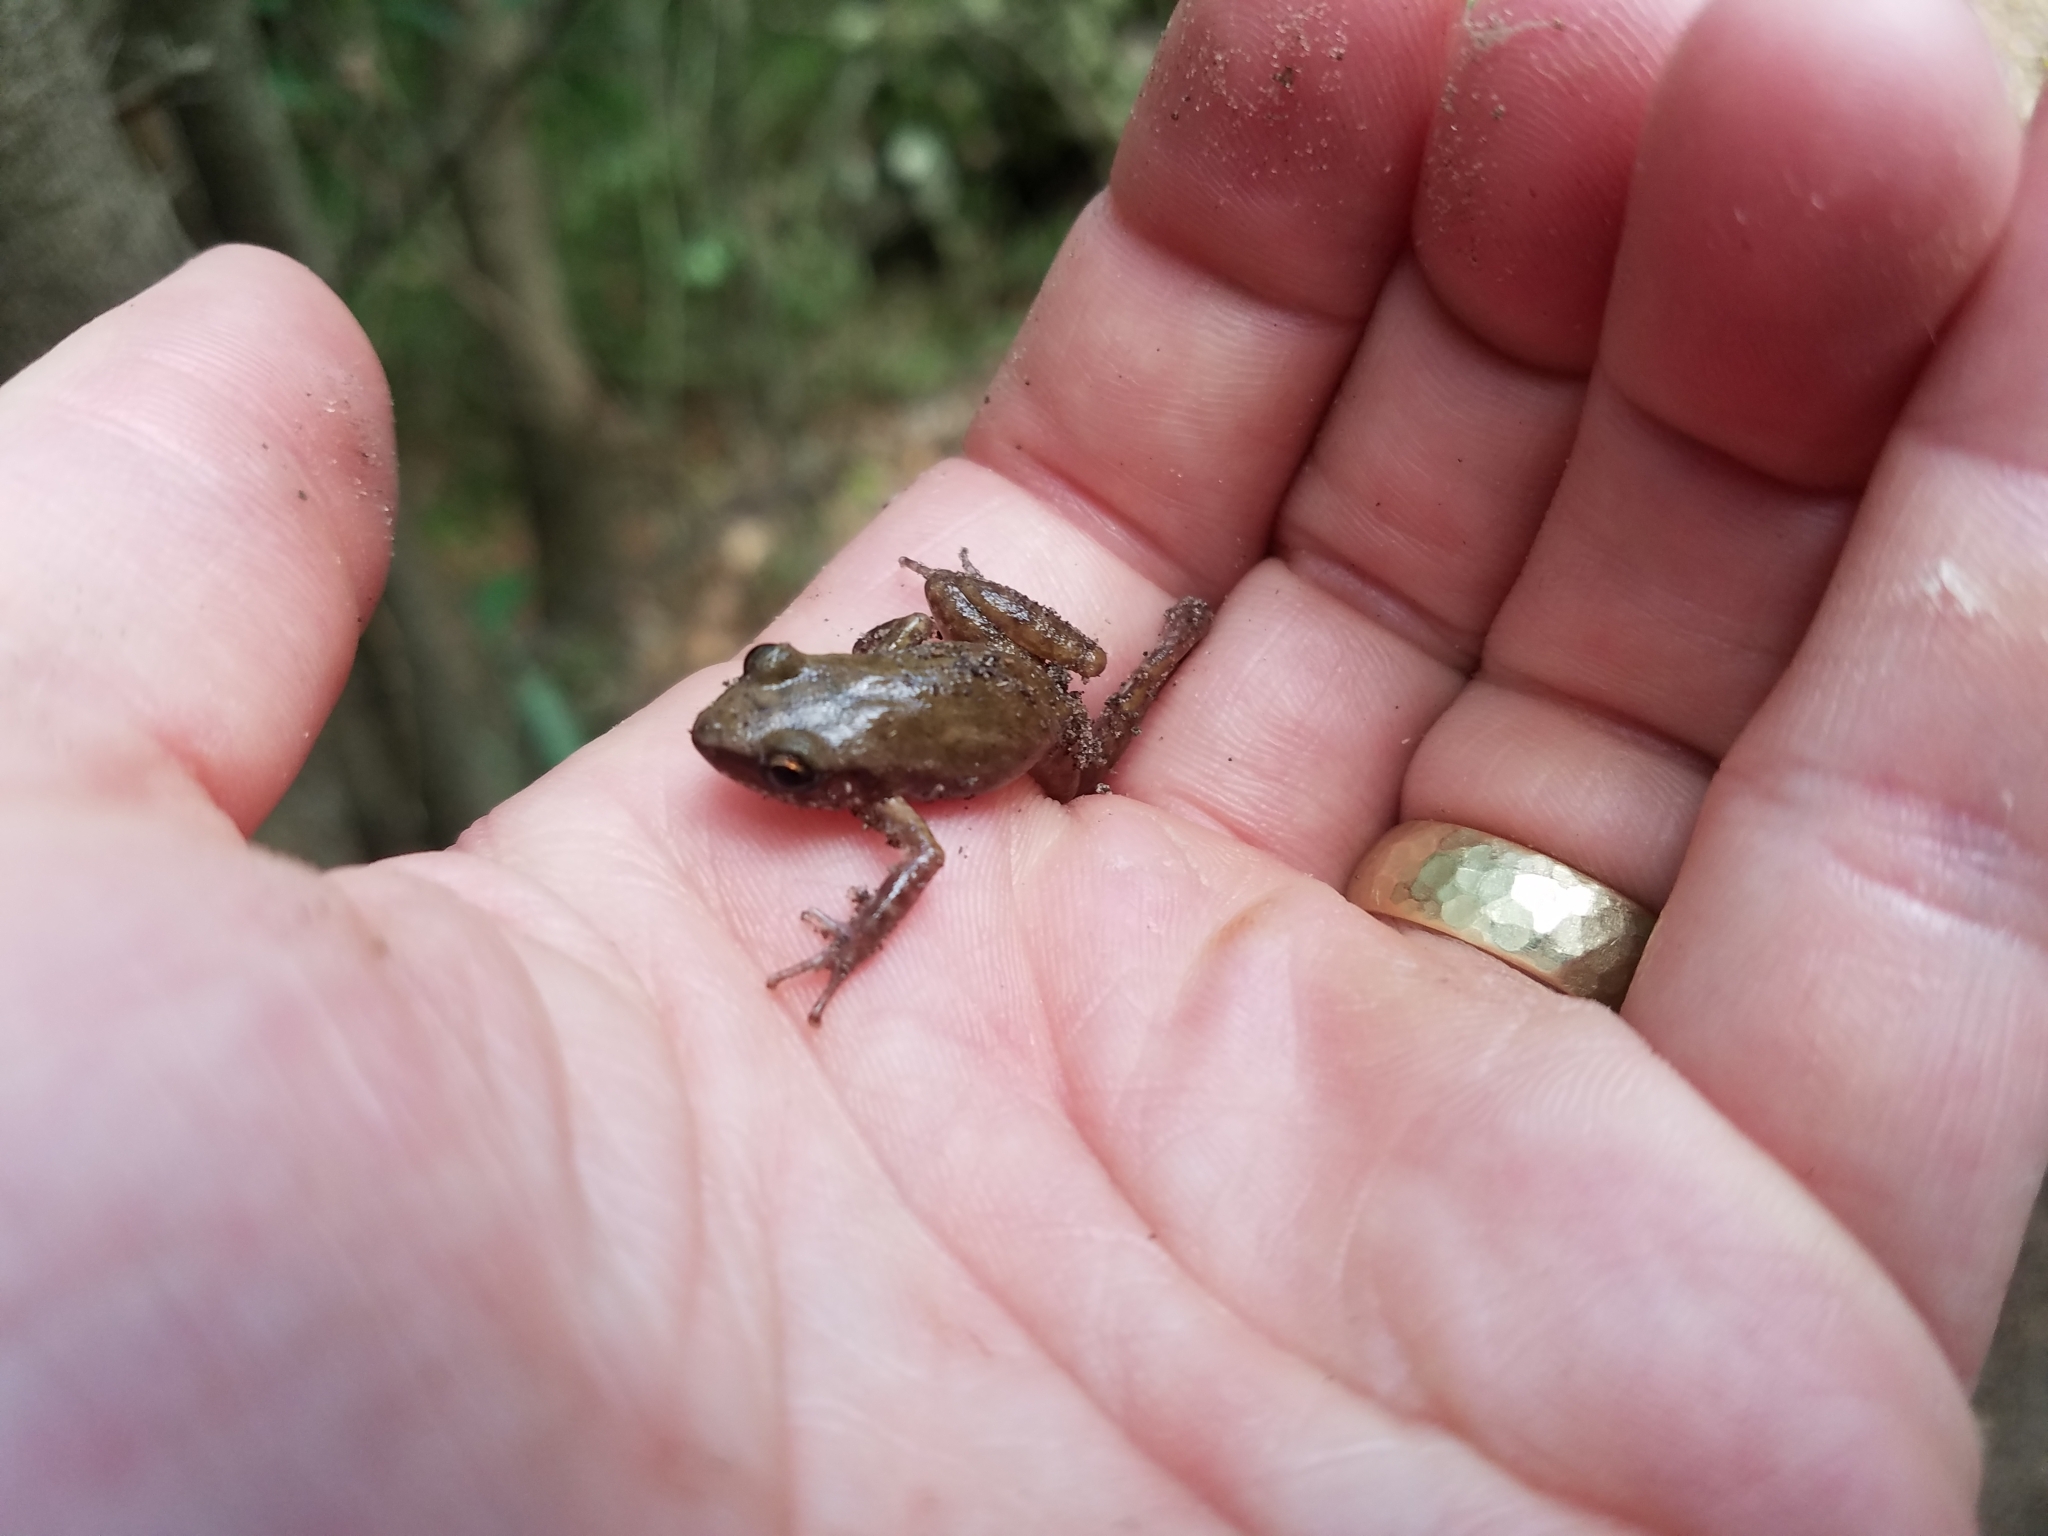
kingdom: Animalia
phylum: Chordata
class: Amphibia
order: Anura
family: Eleutherodactylidae
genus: Eleutherodactylus
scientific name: Eleutherodactylus campi
